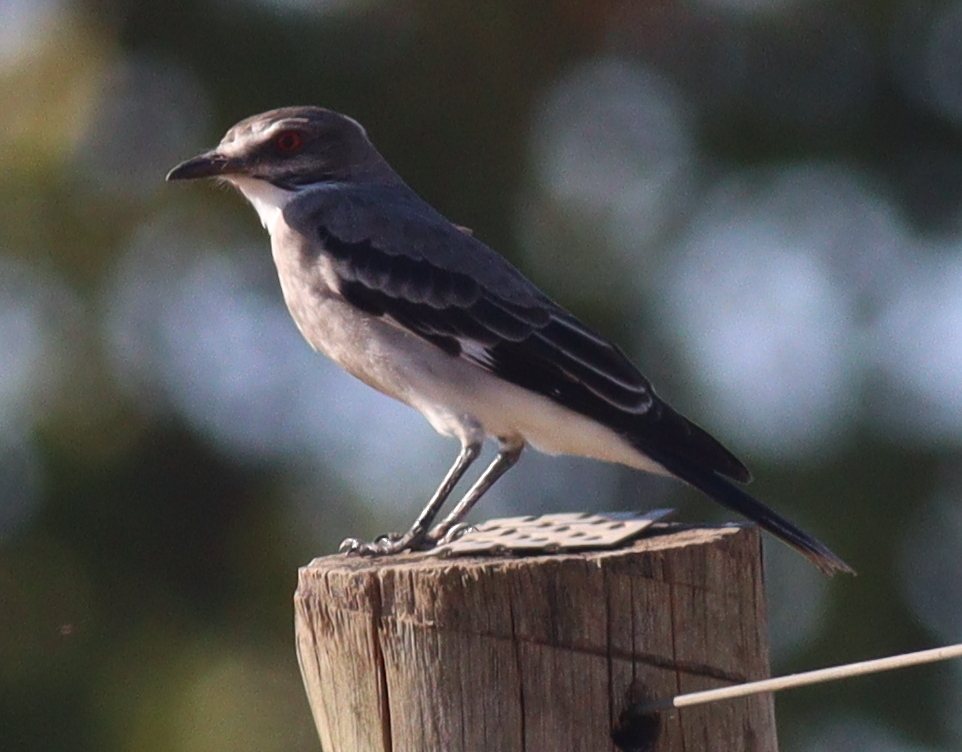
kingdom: Animalia
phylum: Chordata
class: Aves
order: Passeriformes
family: Tyrannidae
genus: Xolmis
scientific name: Xolmis cinereus
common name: Grey monjita
